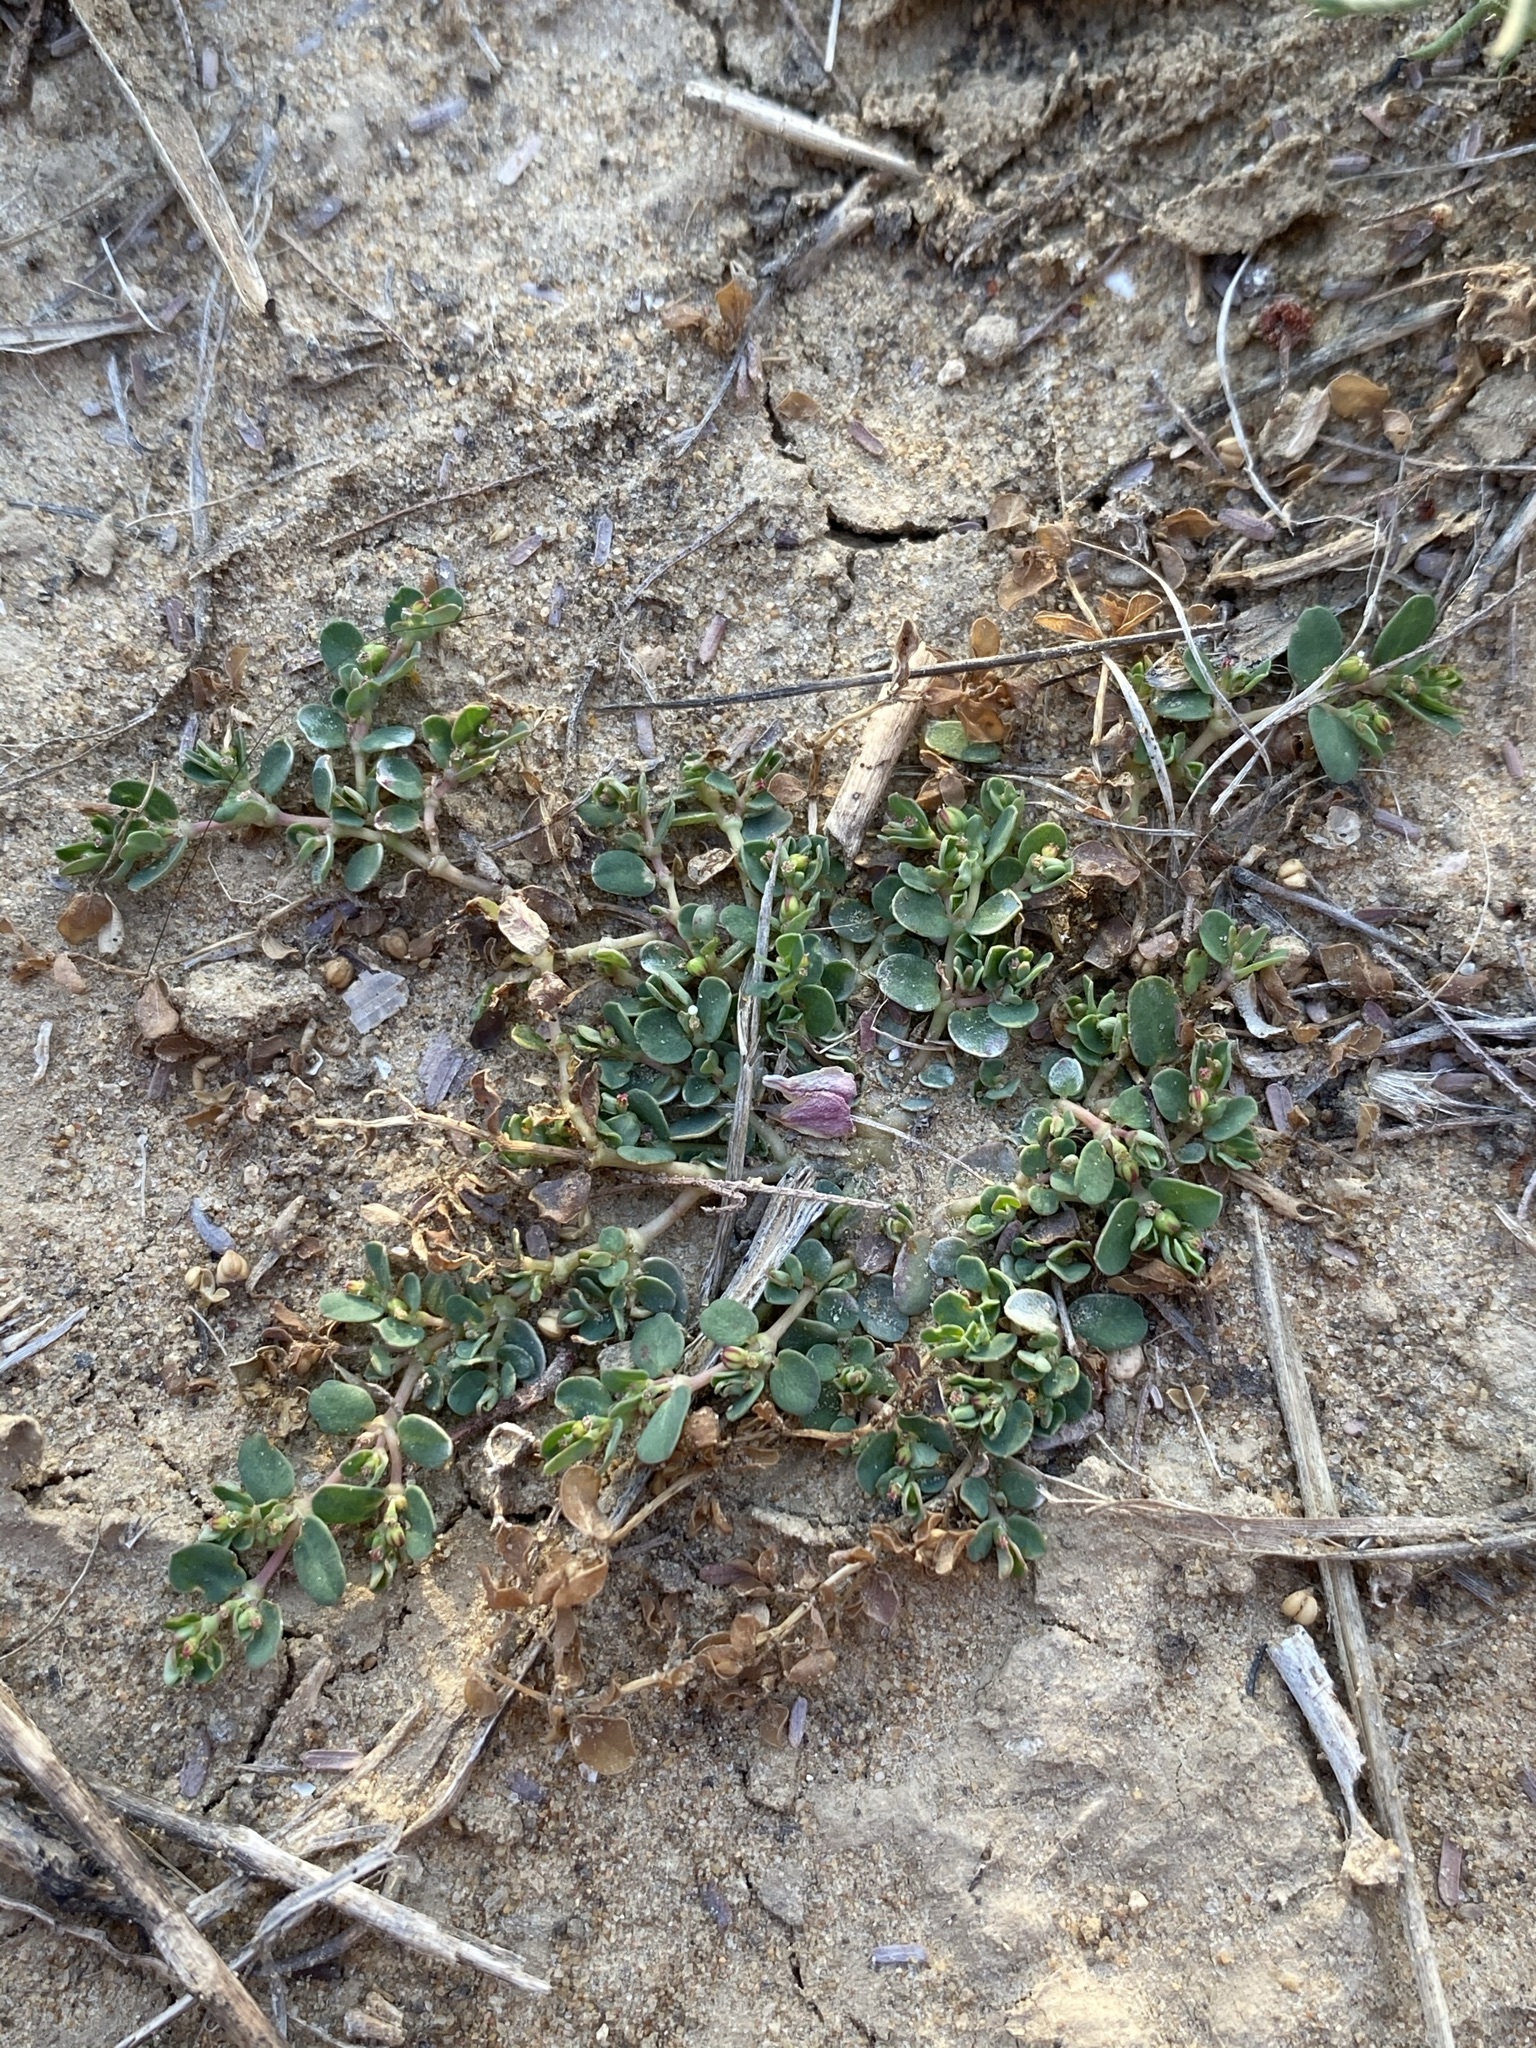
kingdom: Plantae
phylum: Tracheophyta
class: Magnoliopsida
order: Malpighiales
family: Euphorbiaceae
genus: Euphorbia
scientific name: Euphorbia serpens
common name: Matted sandmat
